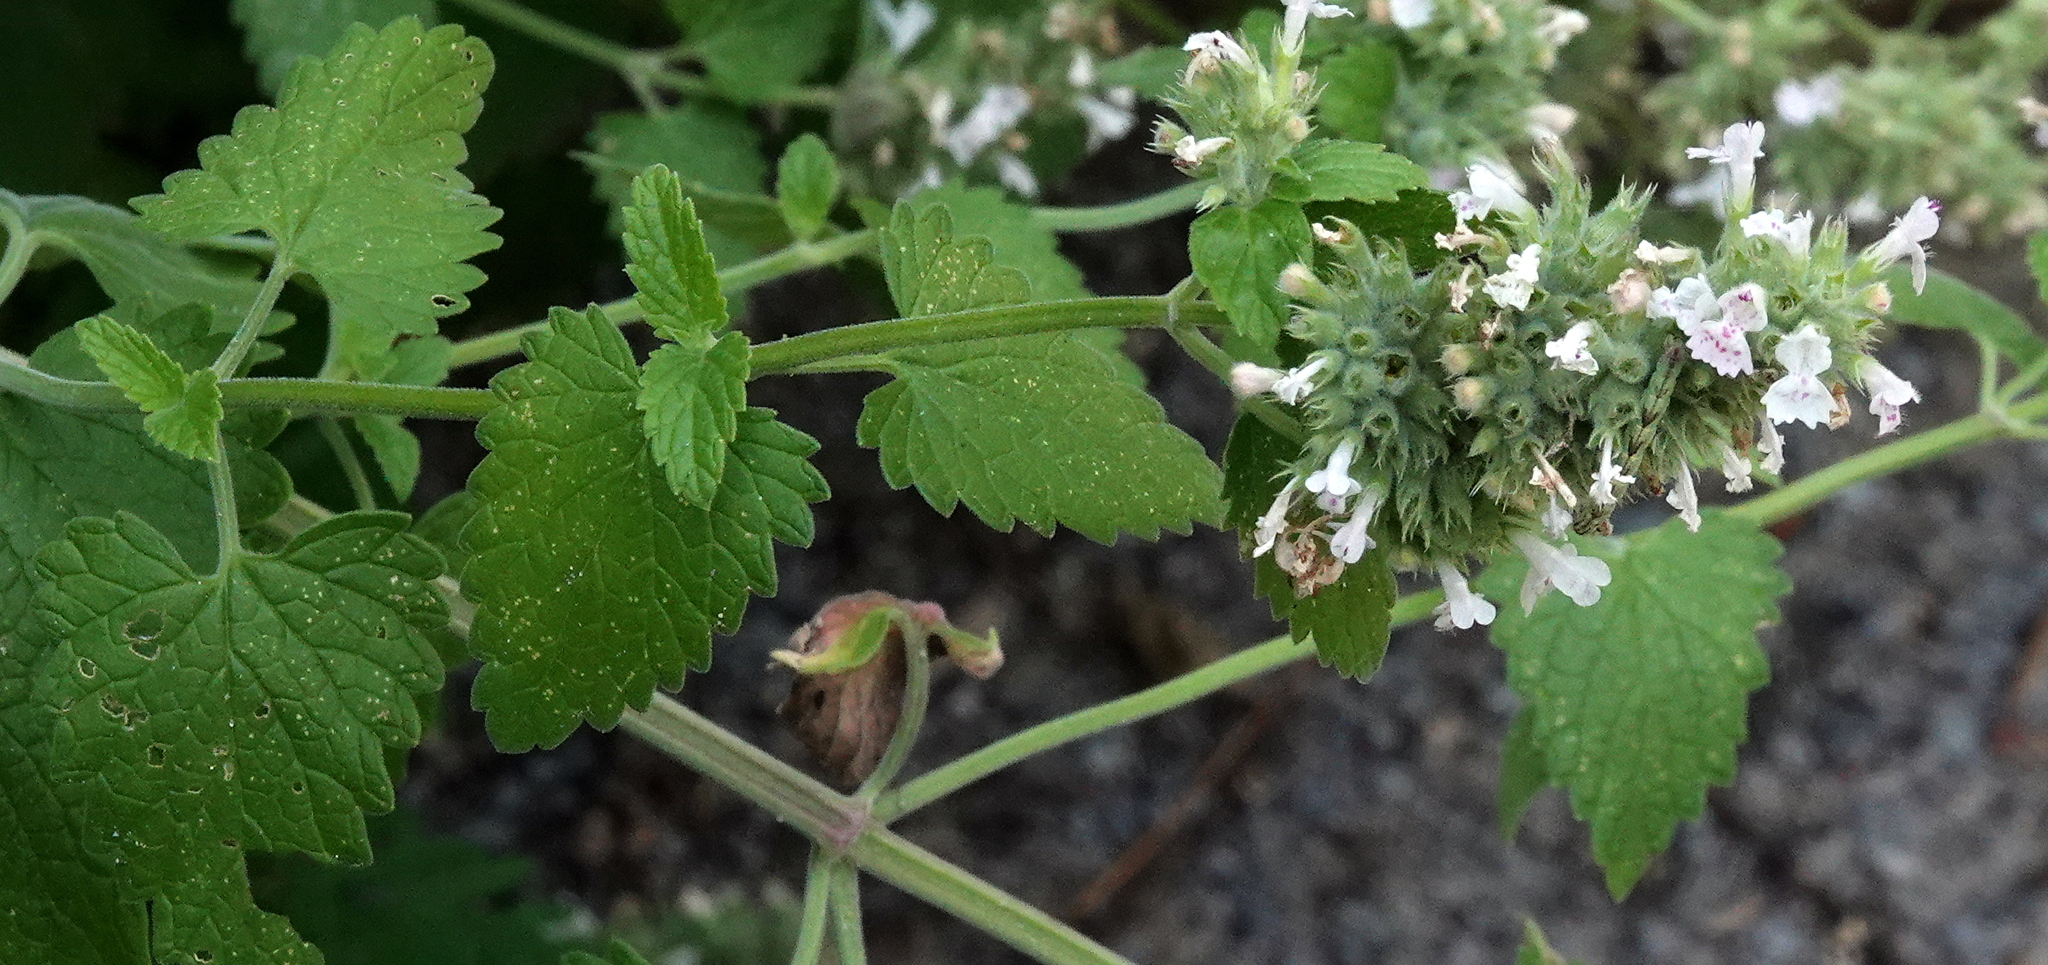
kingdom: Plantae
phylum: Tracheophyta
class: Magnoliopsida
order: Lamiales
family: Lamiaceae
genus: Nepeta
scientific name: Nepeta cataria
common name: Catnip
